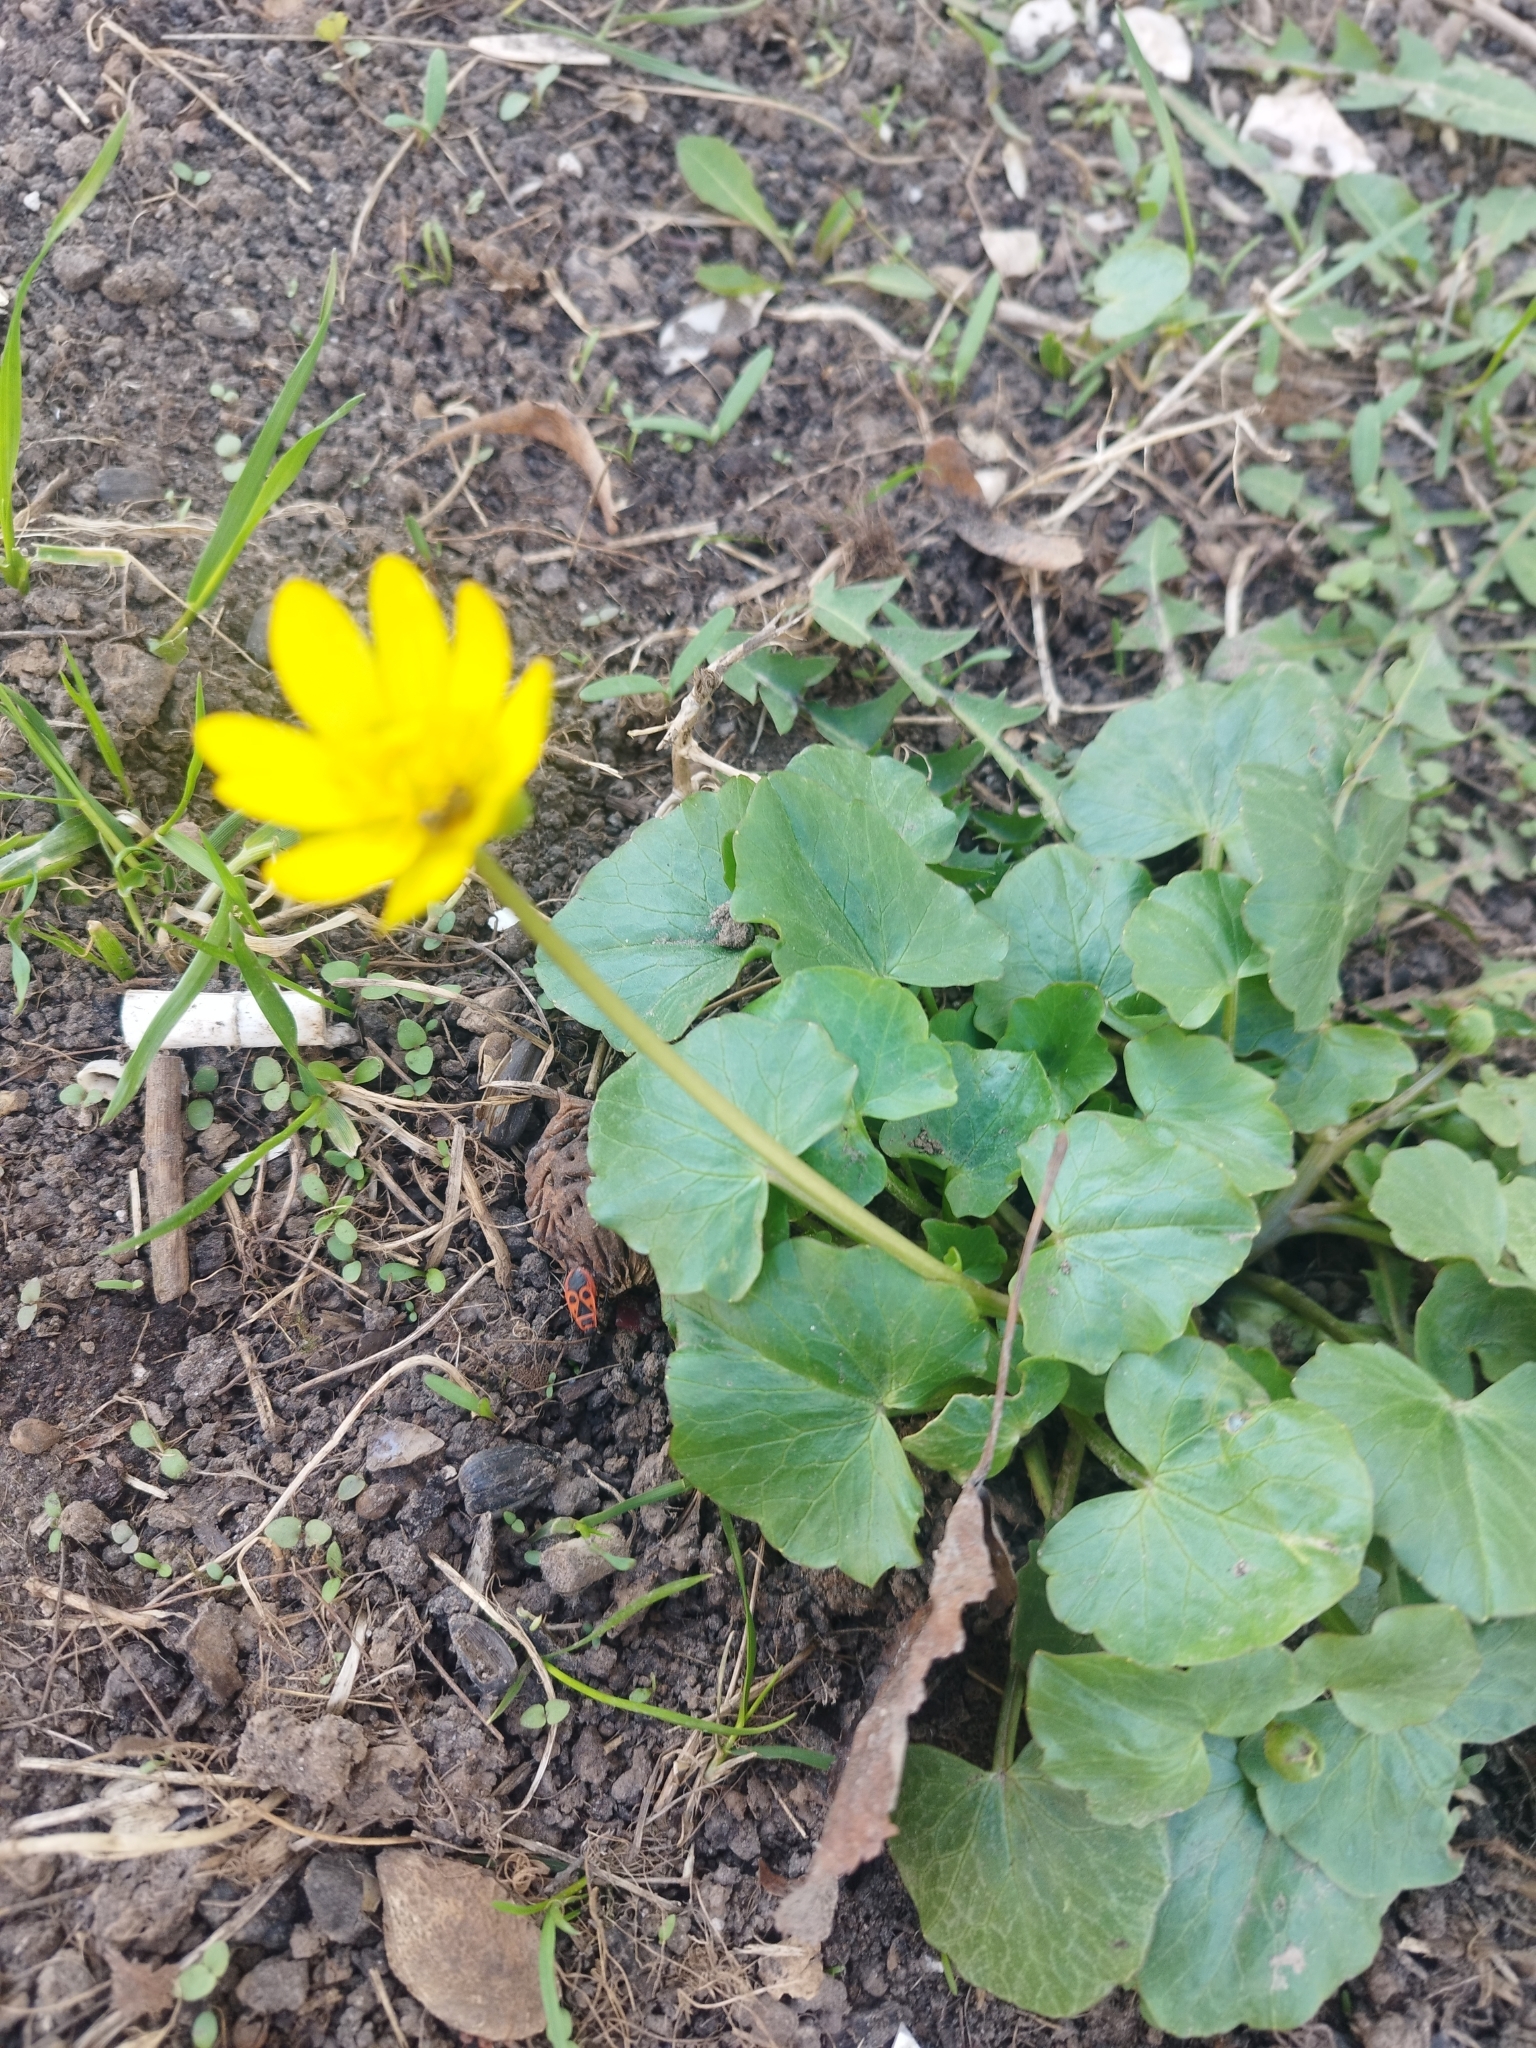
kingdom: Plantae
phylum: Tracheophyta
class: Magnoliopsida
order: Ranunculales
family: Ranunculaceae
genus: Ficaria
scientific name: Ficaria verna
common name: Lesser celandine
